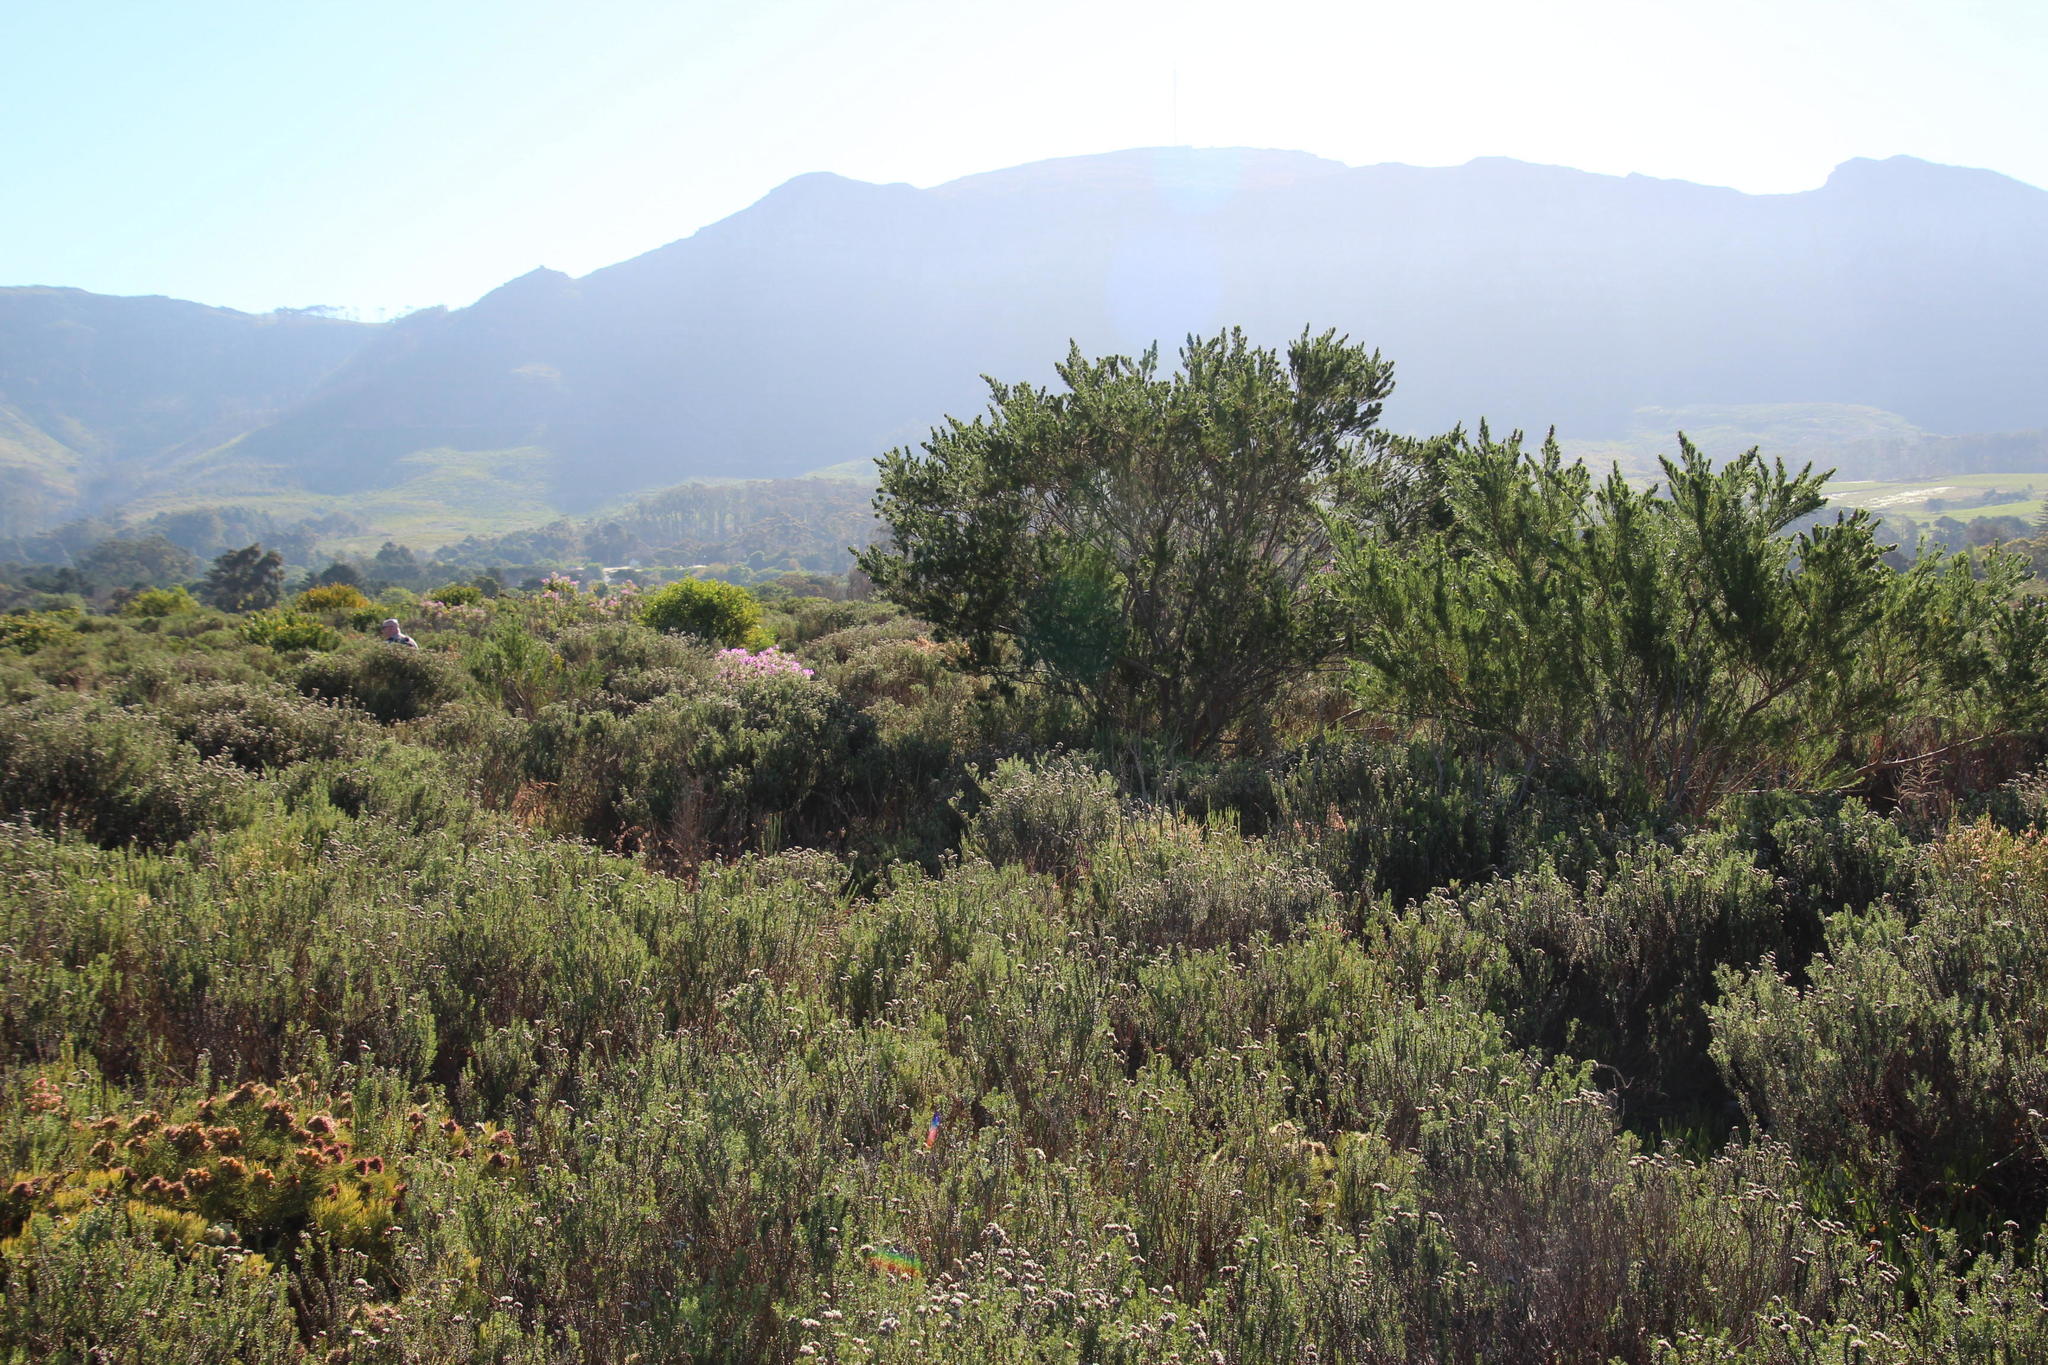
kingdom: Plantae
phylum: Tracheophyta
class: Magnoliopsida
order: Fabales
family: Fabaceae
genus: Psoralea
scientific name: Psoralea pinnata
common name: African scurfpea
